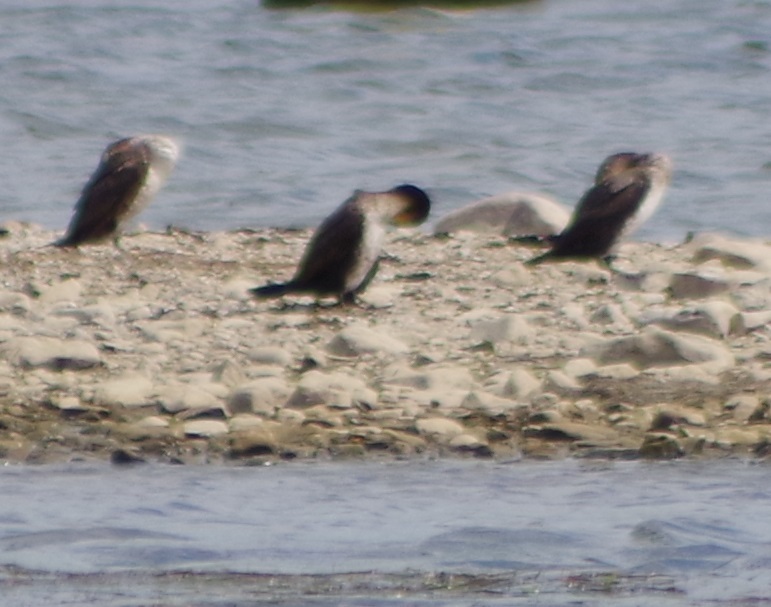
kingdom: Animalia
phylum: Chordata
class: Aves
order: Suliformes
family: Phalacrocoracidae
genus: Phalacrocorax
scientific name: Phalacrocorax carbo
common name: Great cormorant
